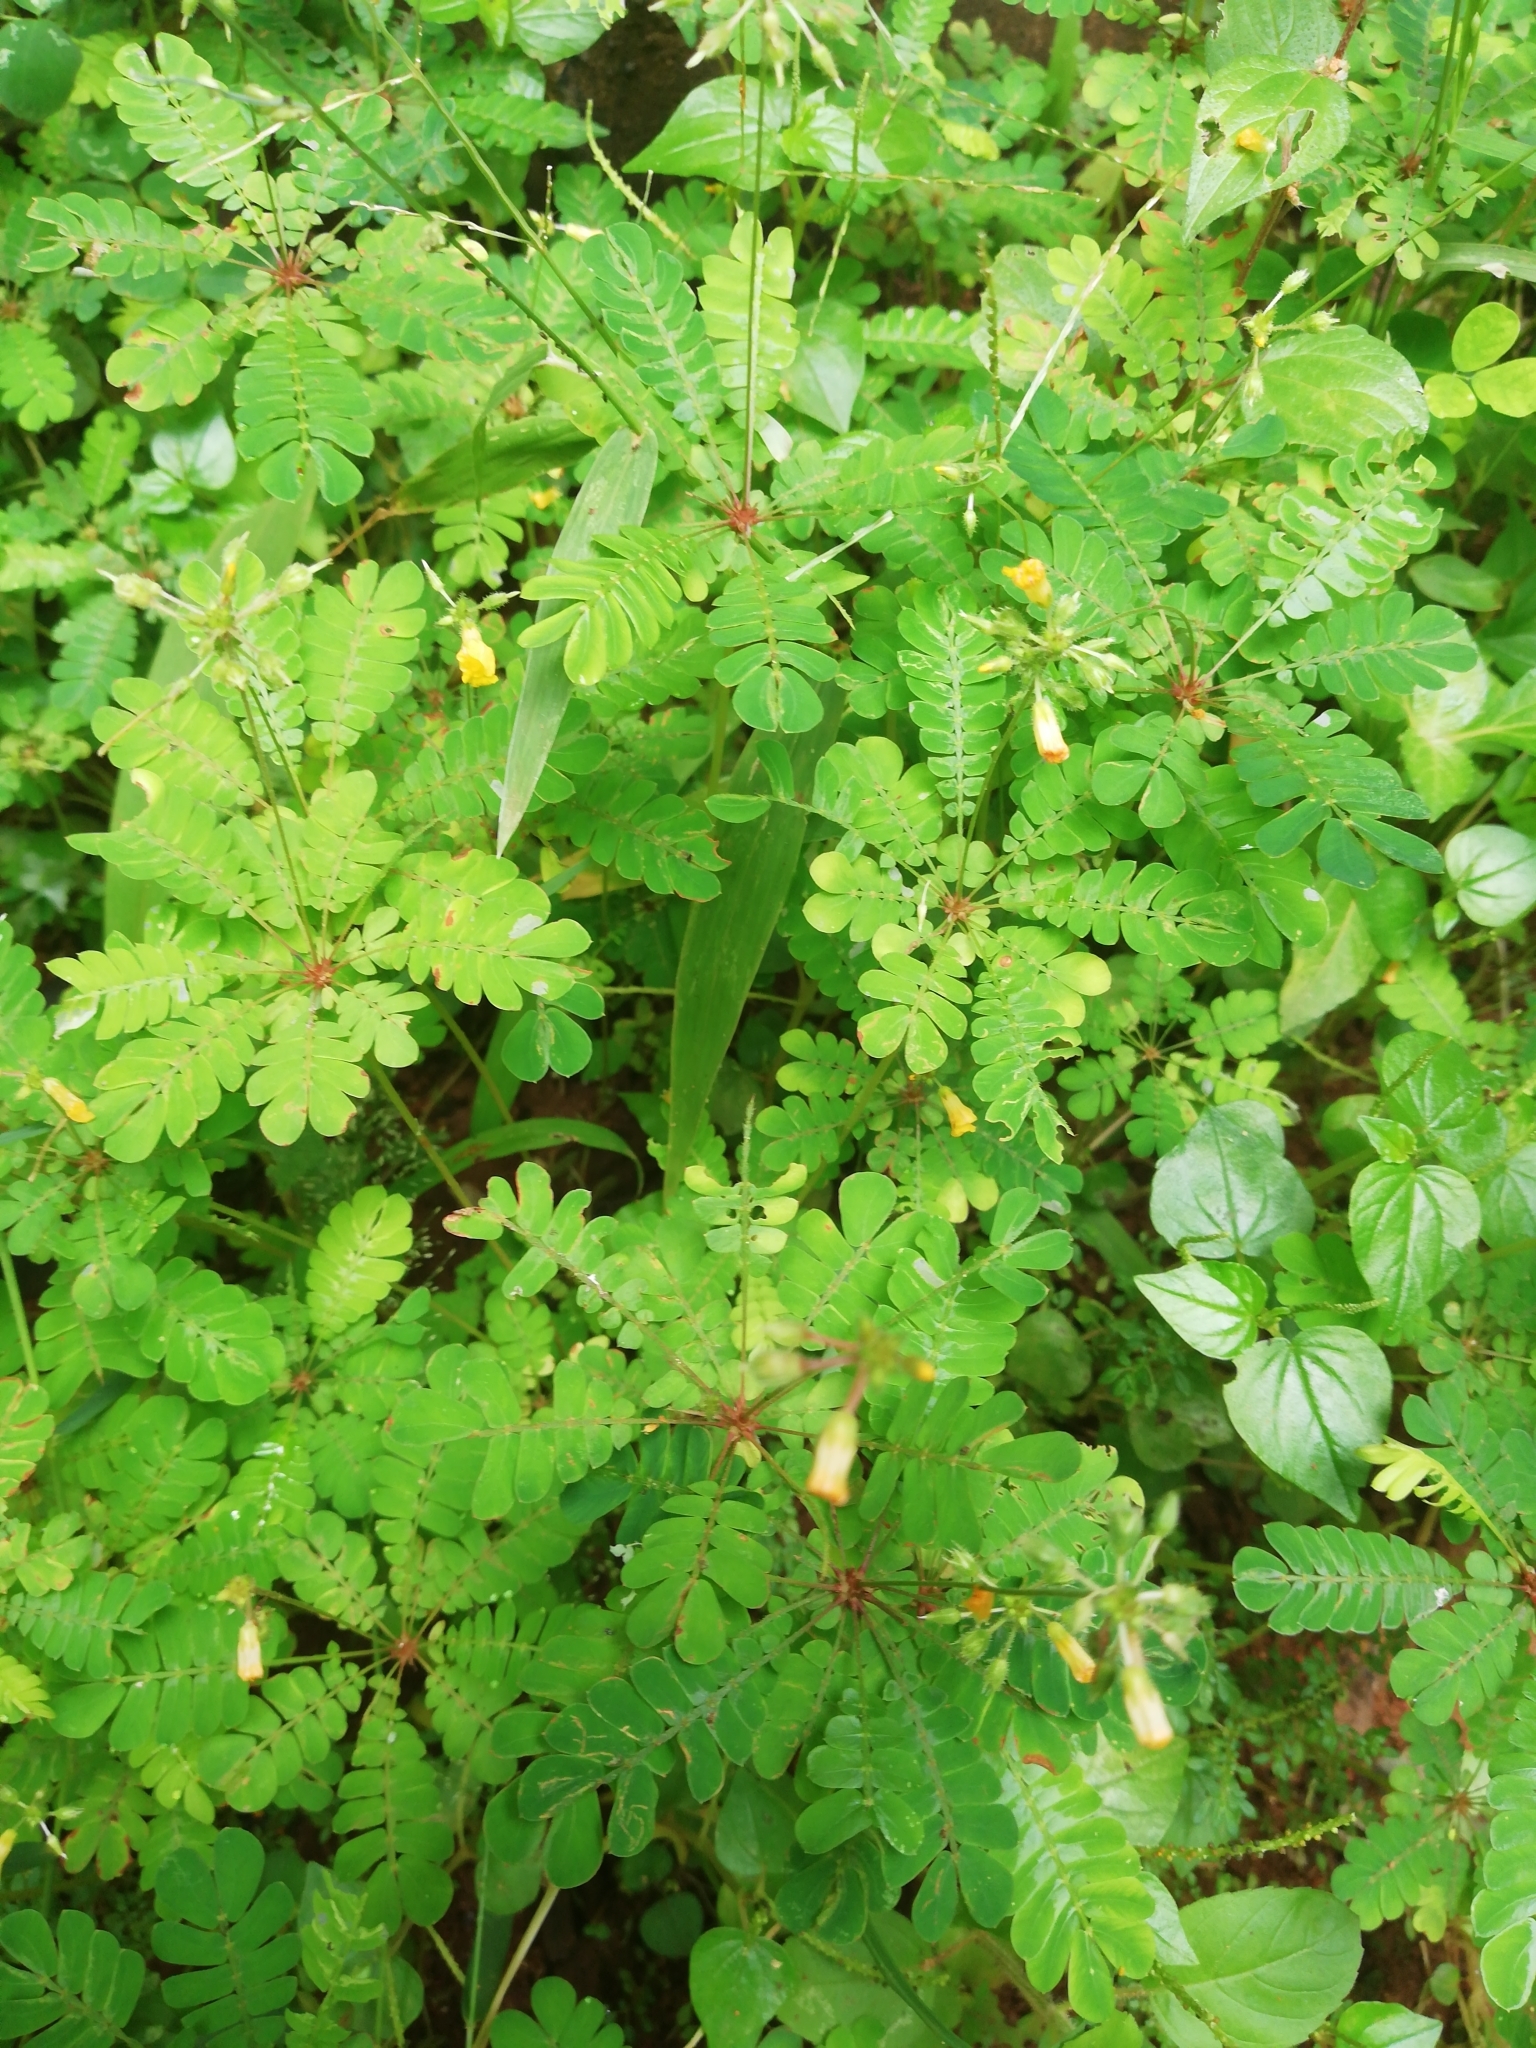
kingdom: Plantae
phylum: Tracheophyta
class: Magnoliopsida
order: Oxalidales
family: Oxalidaceae
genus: Biophytum
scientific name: Biophytum sensitivum
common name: Lifeplant
